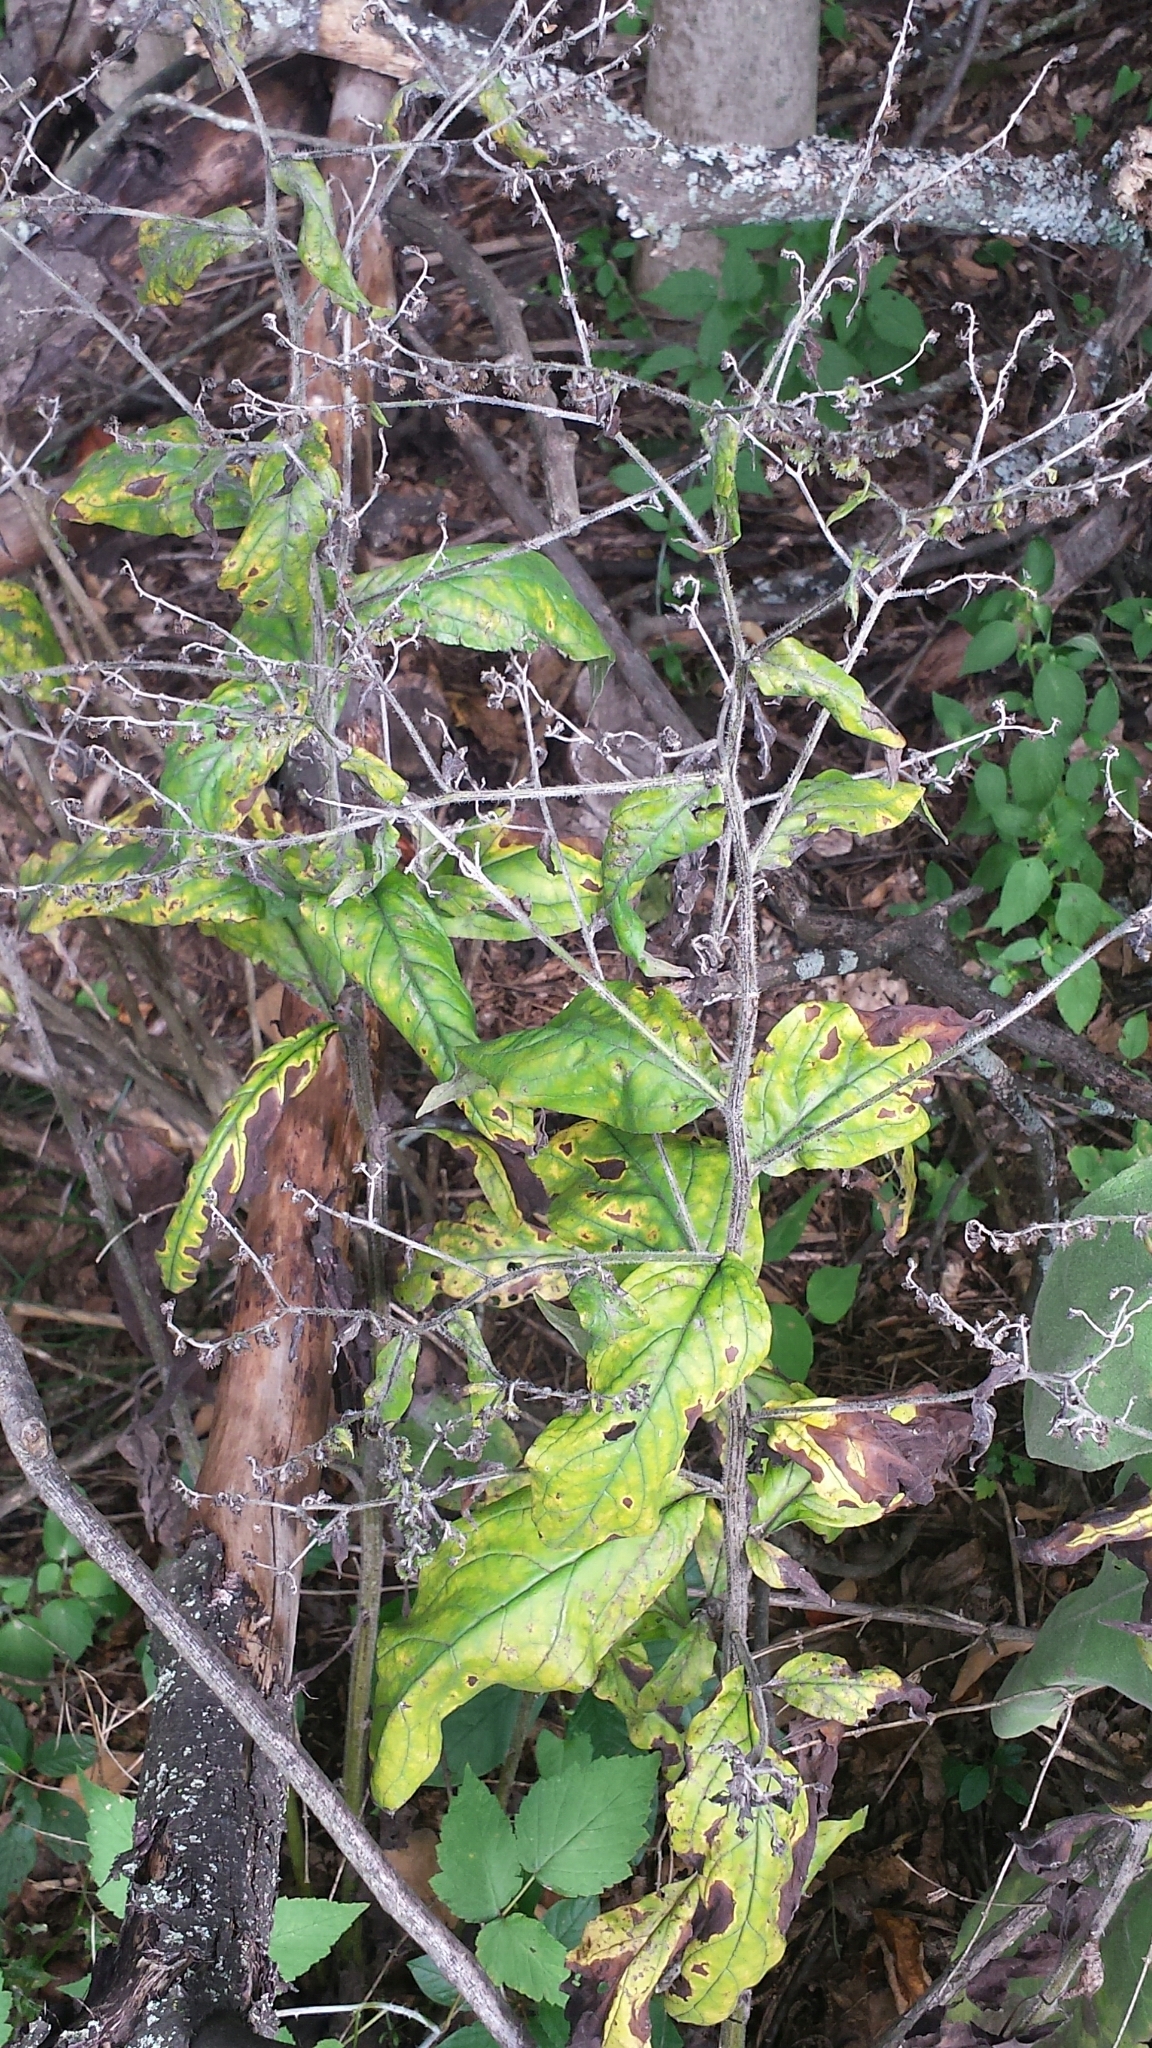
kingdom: Plantae
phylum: Tracheophyta
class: Magnoliopsida
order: Boraginales
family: Boraginaceae
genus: Hackelia
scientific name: Hackelia virginiana
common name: Beggar's-lice
